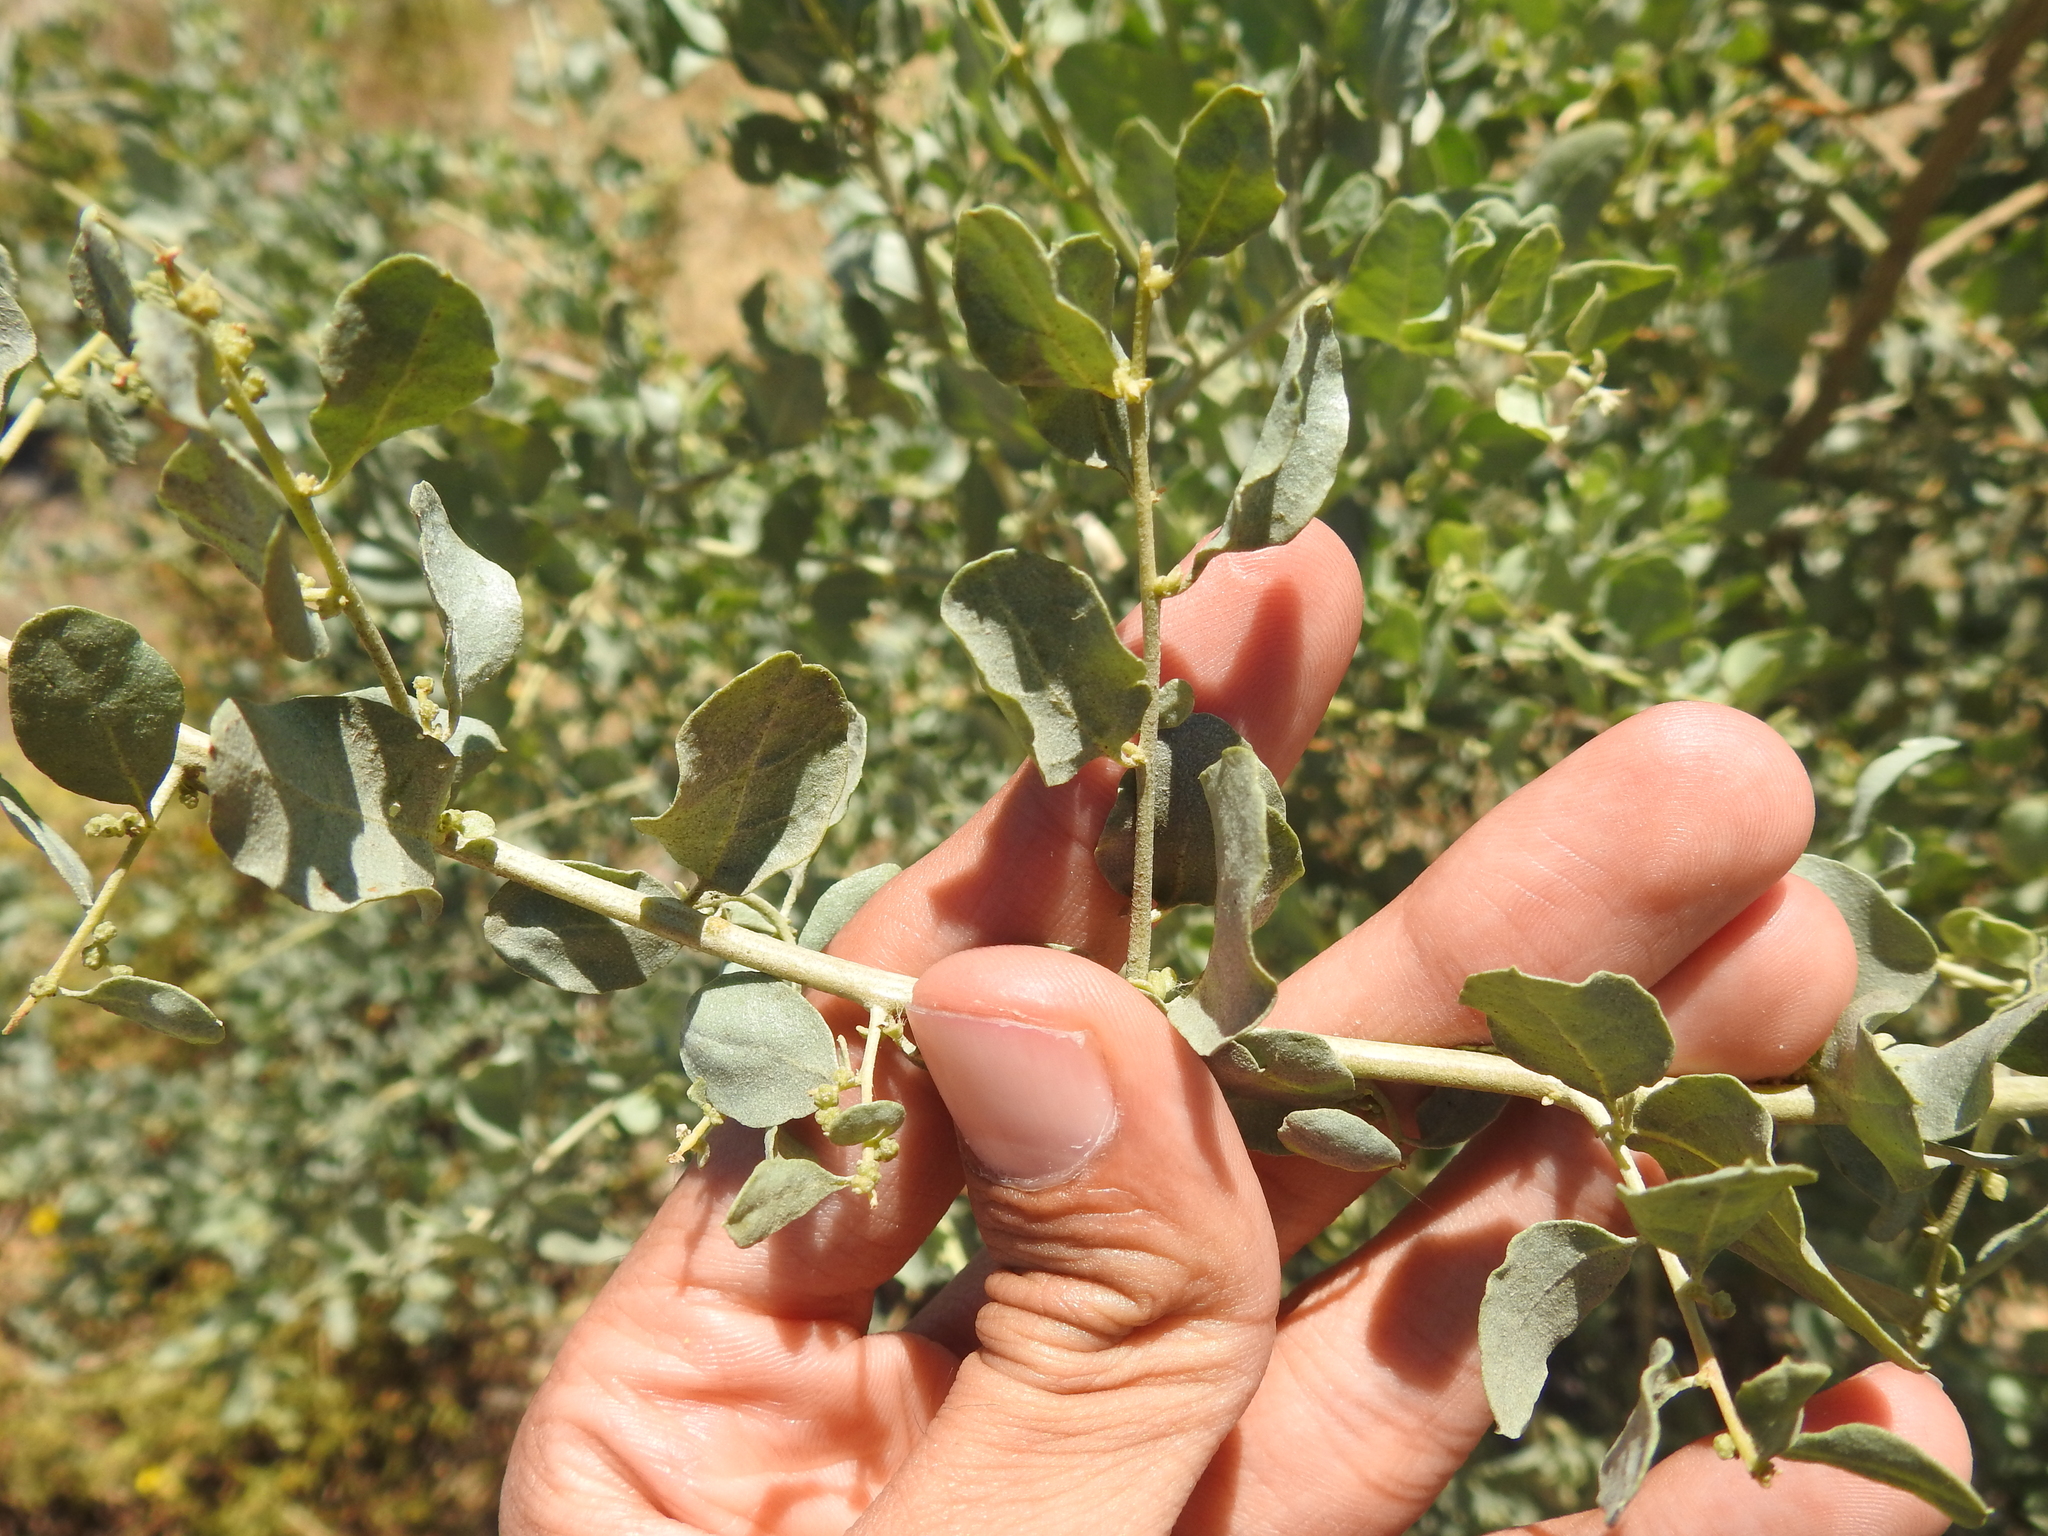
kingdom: Plantae
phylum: Tracheophyta
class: Magnoliopsida
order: Caryophyllales
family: Amaranthaceae
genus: Atriplex
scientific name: Atriplex lentiformis
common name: Big saltbush
